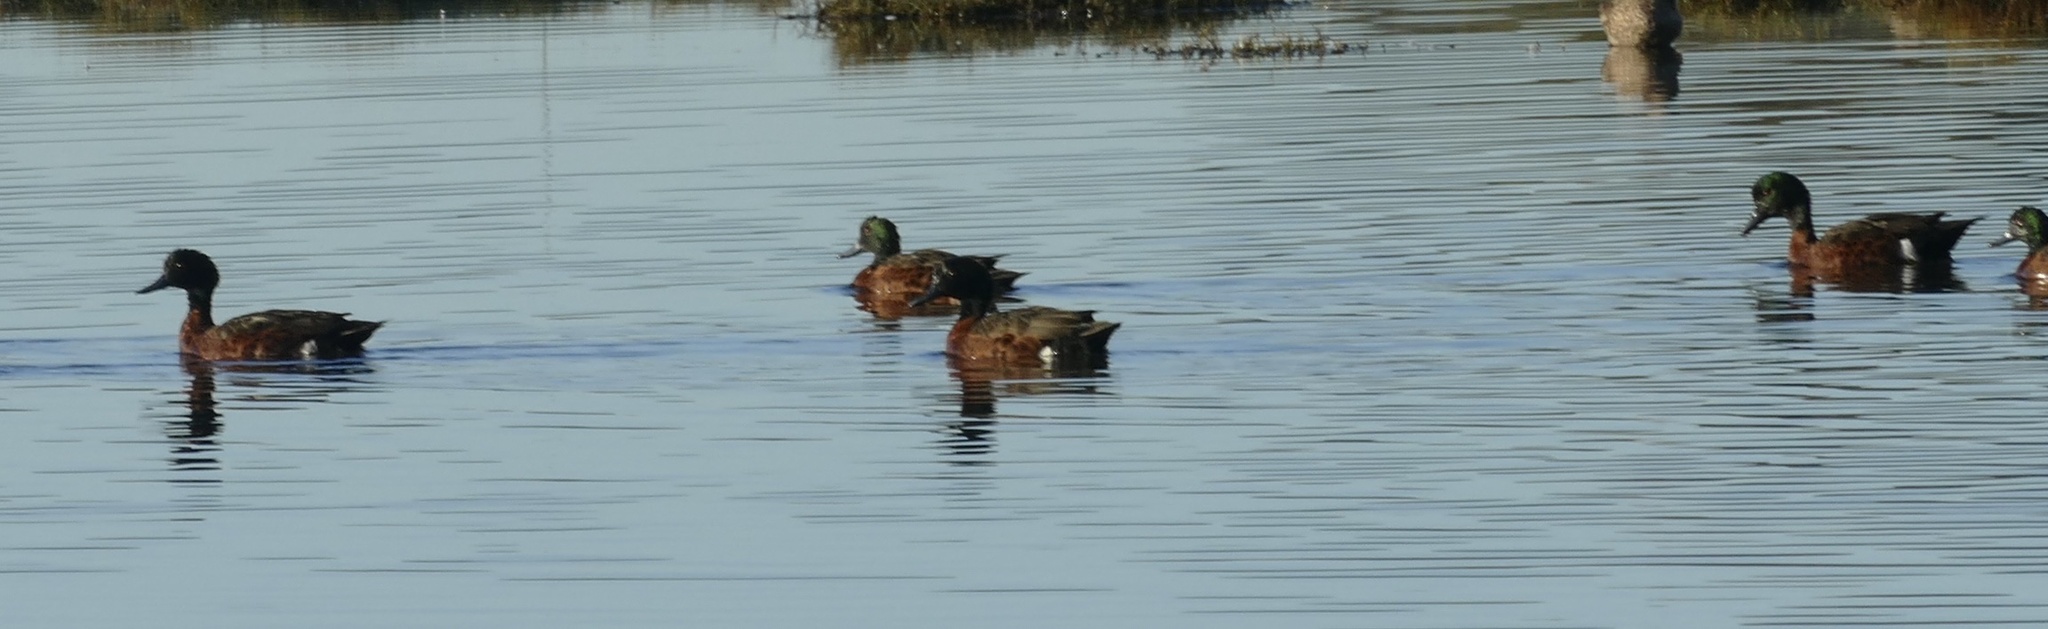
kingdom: Animalia
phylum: Chordata
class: Aves
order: Anseriformes
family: Anatidae
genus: Anas
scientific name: Anas castanea
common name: Chestnut teal
